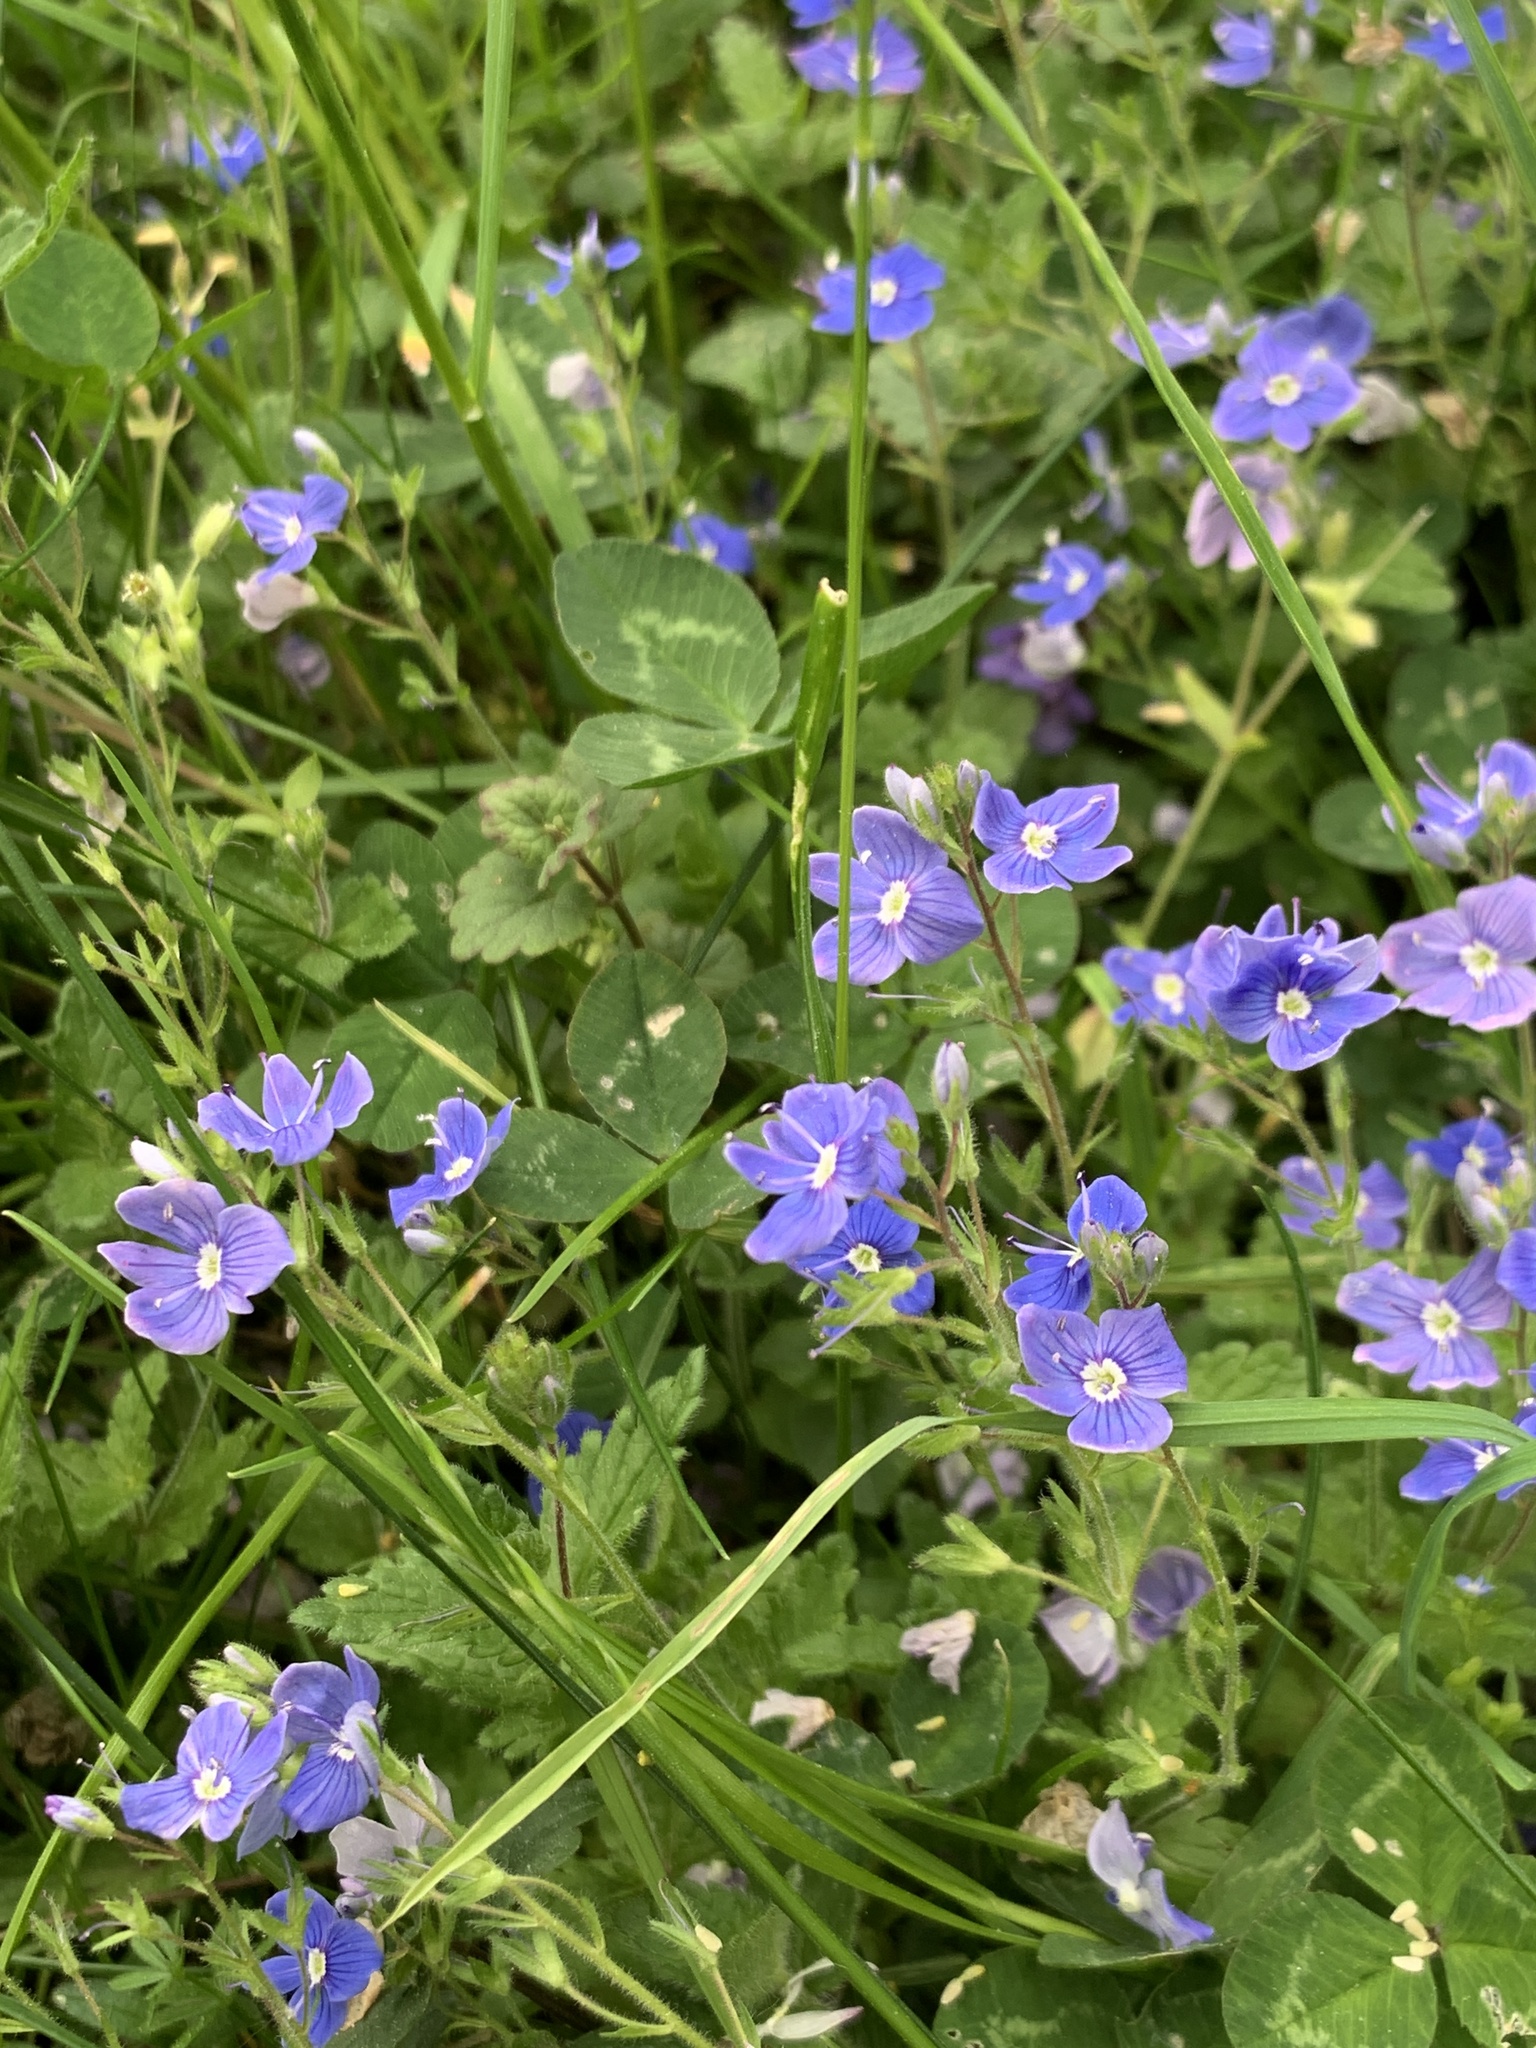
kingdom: Plantae
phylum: Tracheophyta
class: Magnoliopsida
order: Lamiales
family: Plantaginaceae
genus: Veronica
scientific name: Veronica chamaedrys
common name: Germander speedwell
